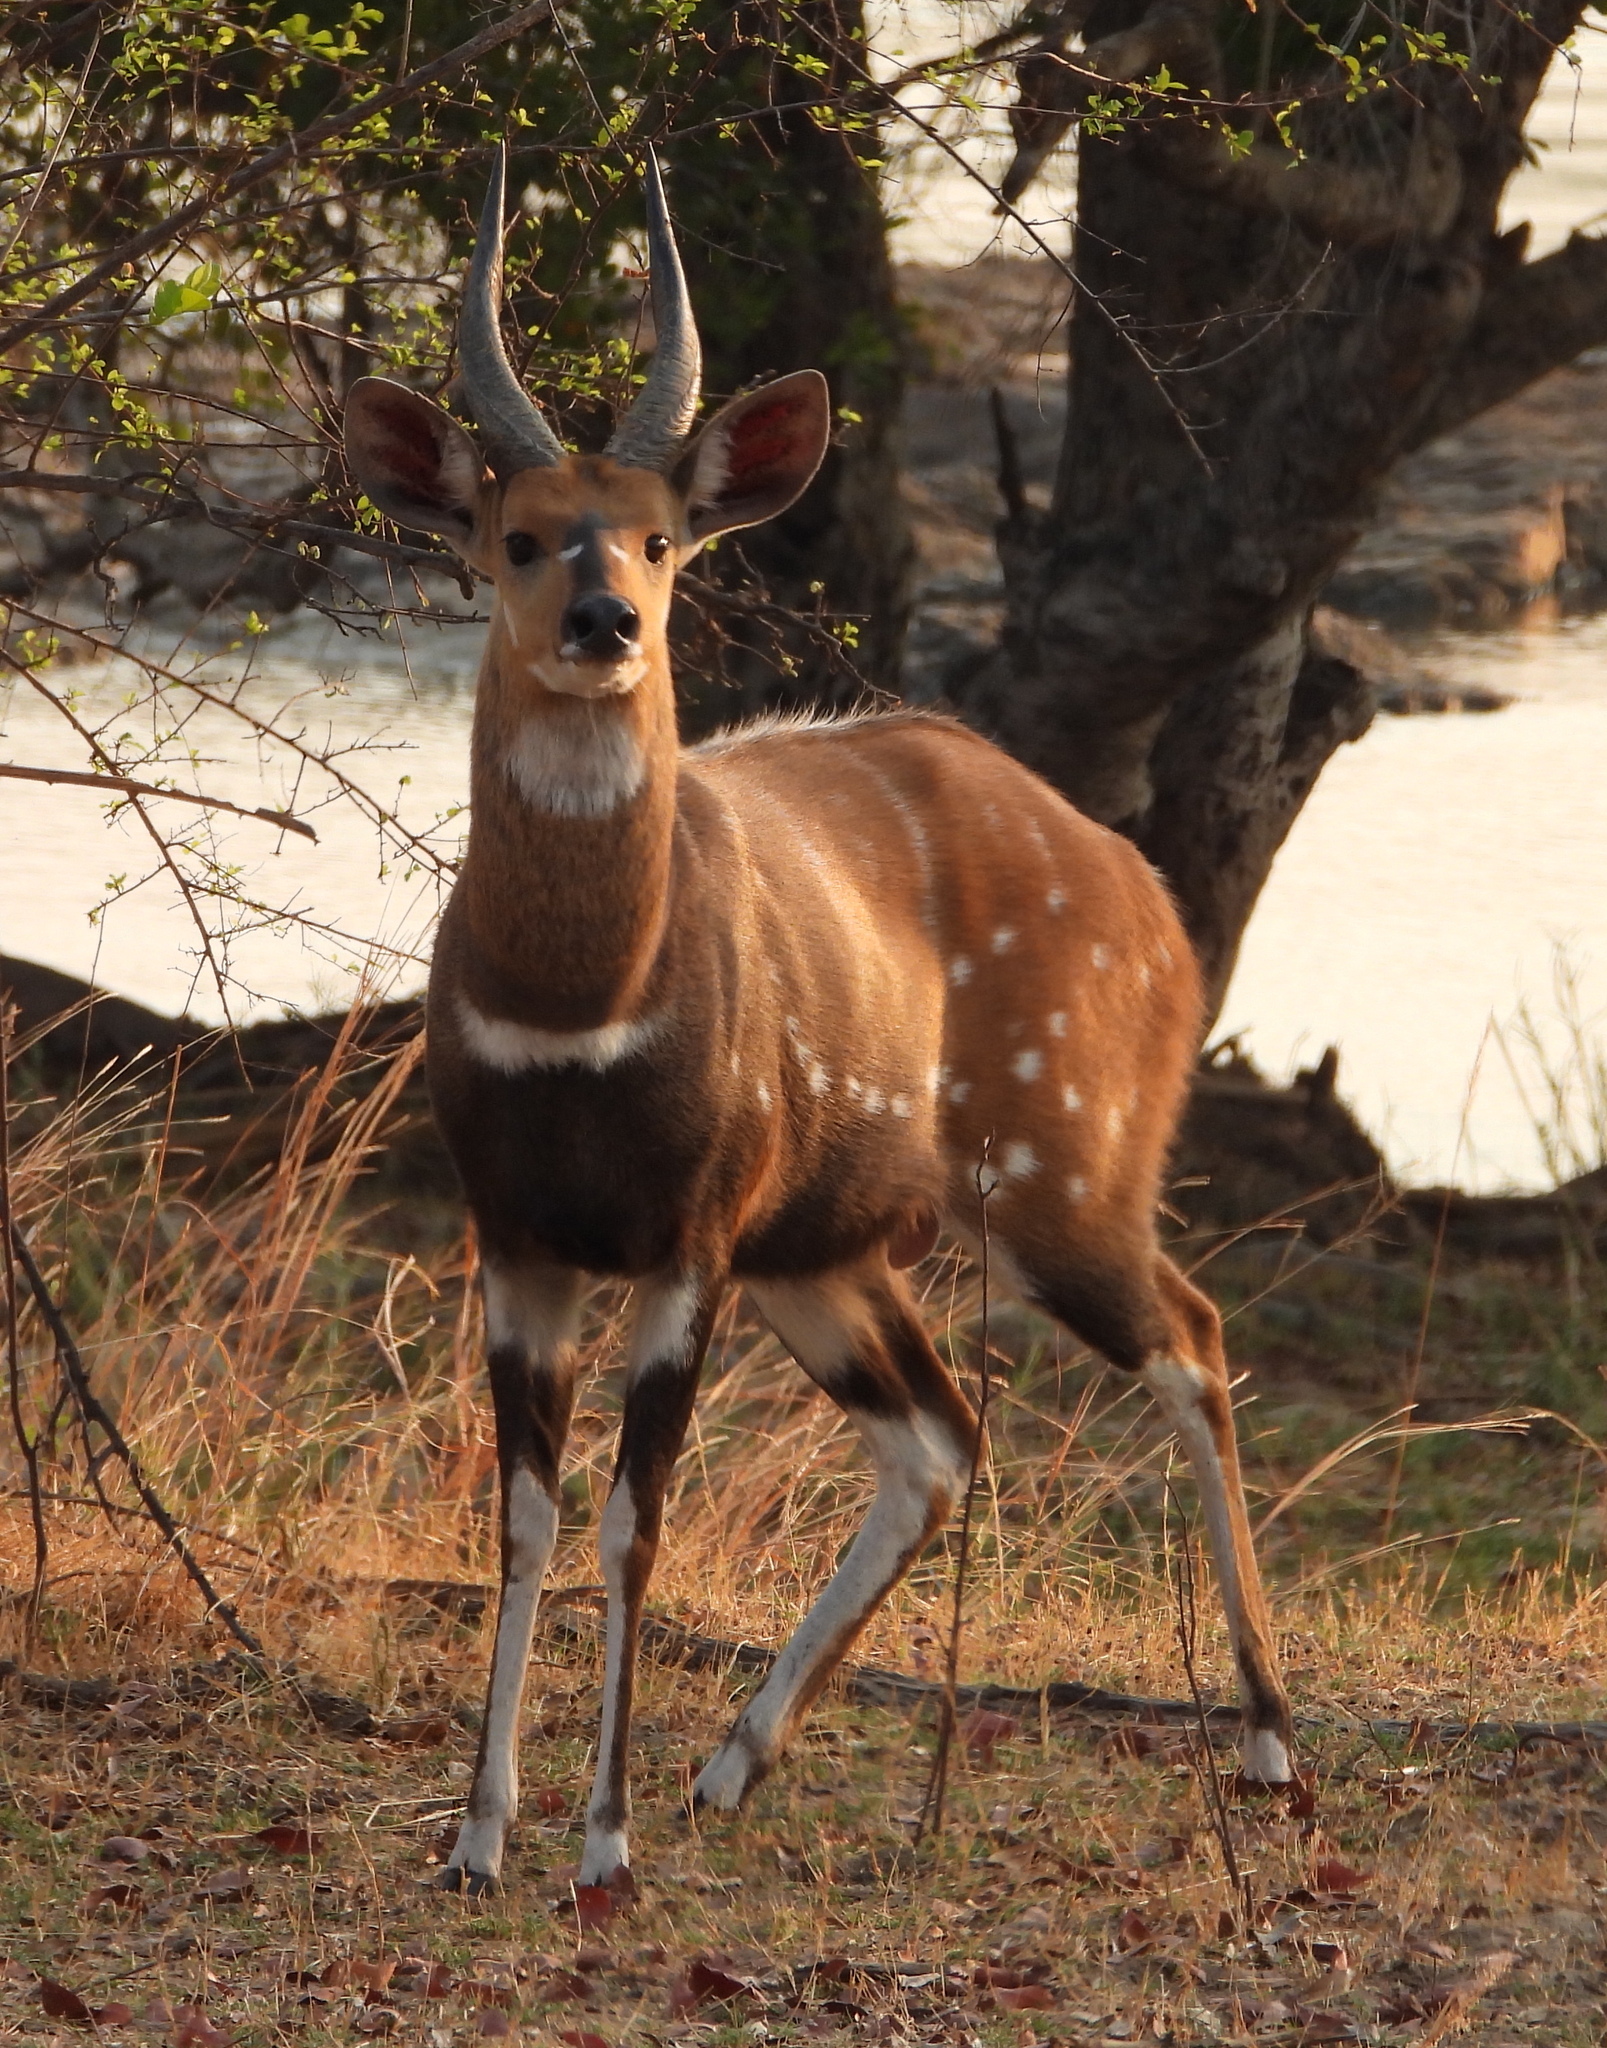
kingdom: Animalia
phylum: Chordata
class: Mammalia
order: Artiodactyla
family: Bovidae
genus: Tragelaphus
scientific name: Tragelaphus scriptus
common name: Bushbuck
